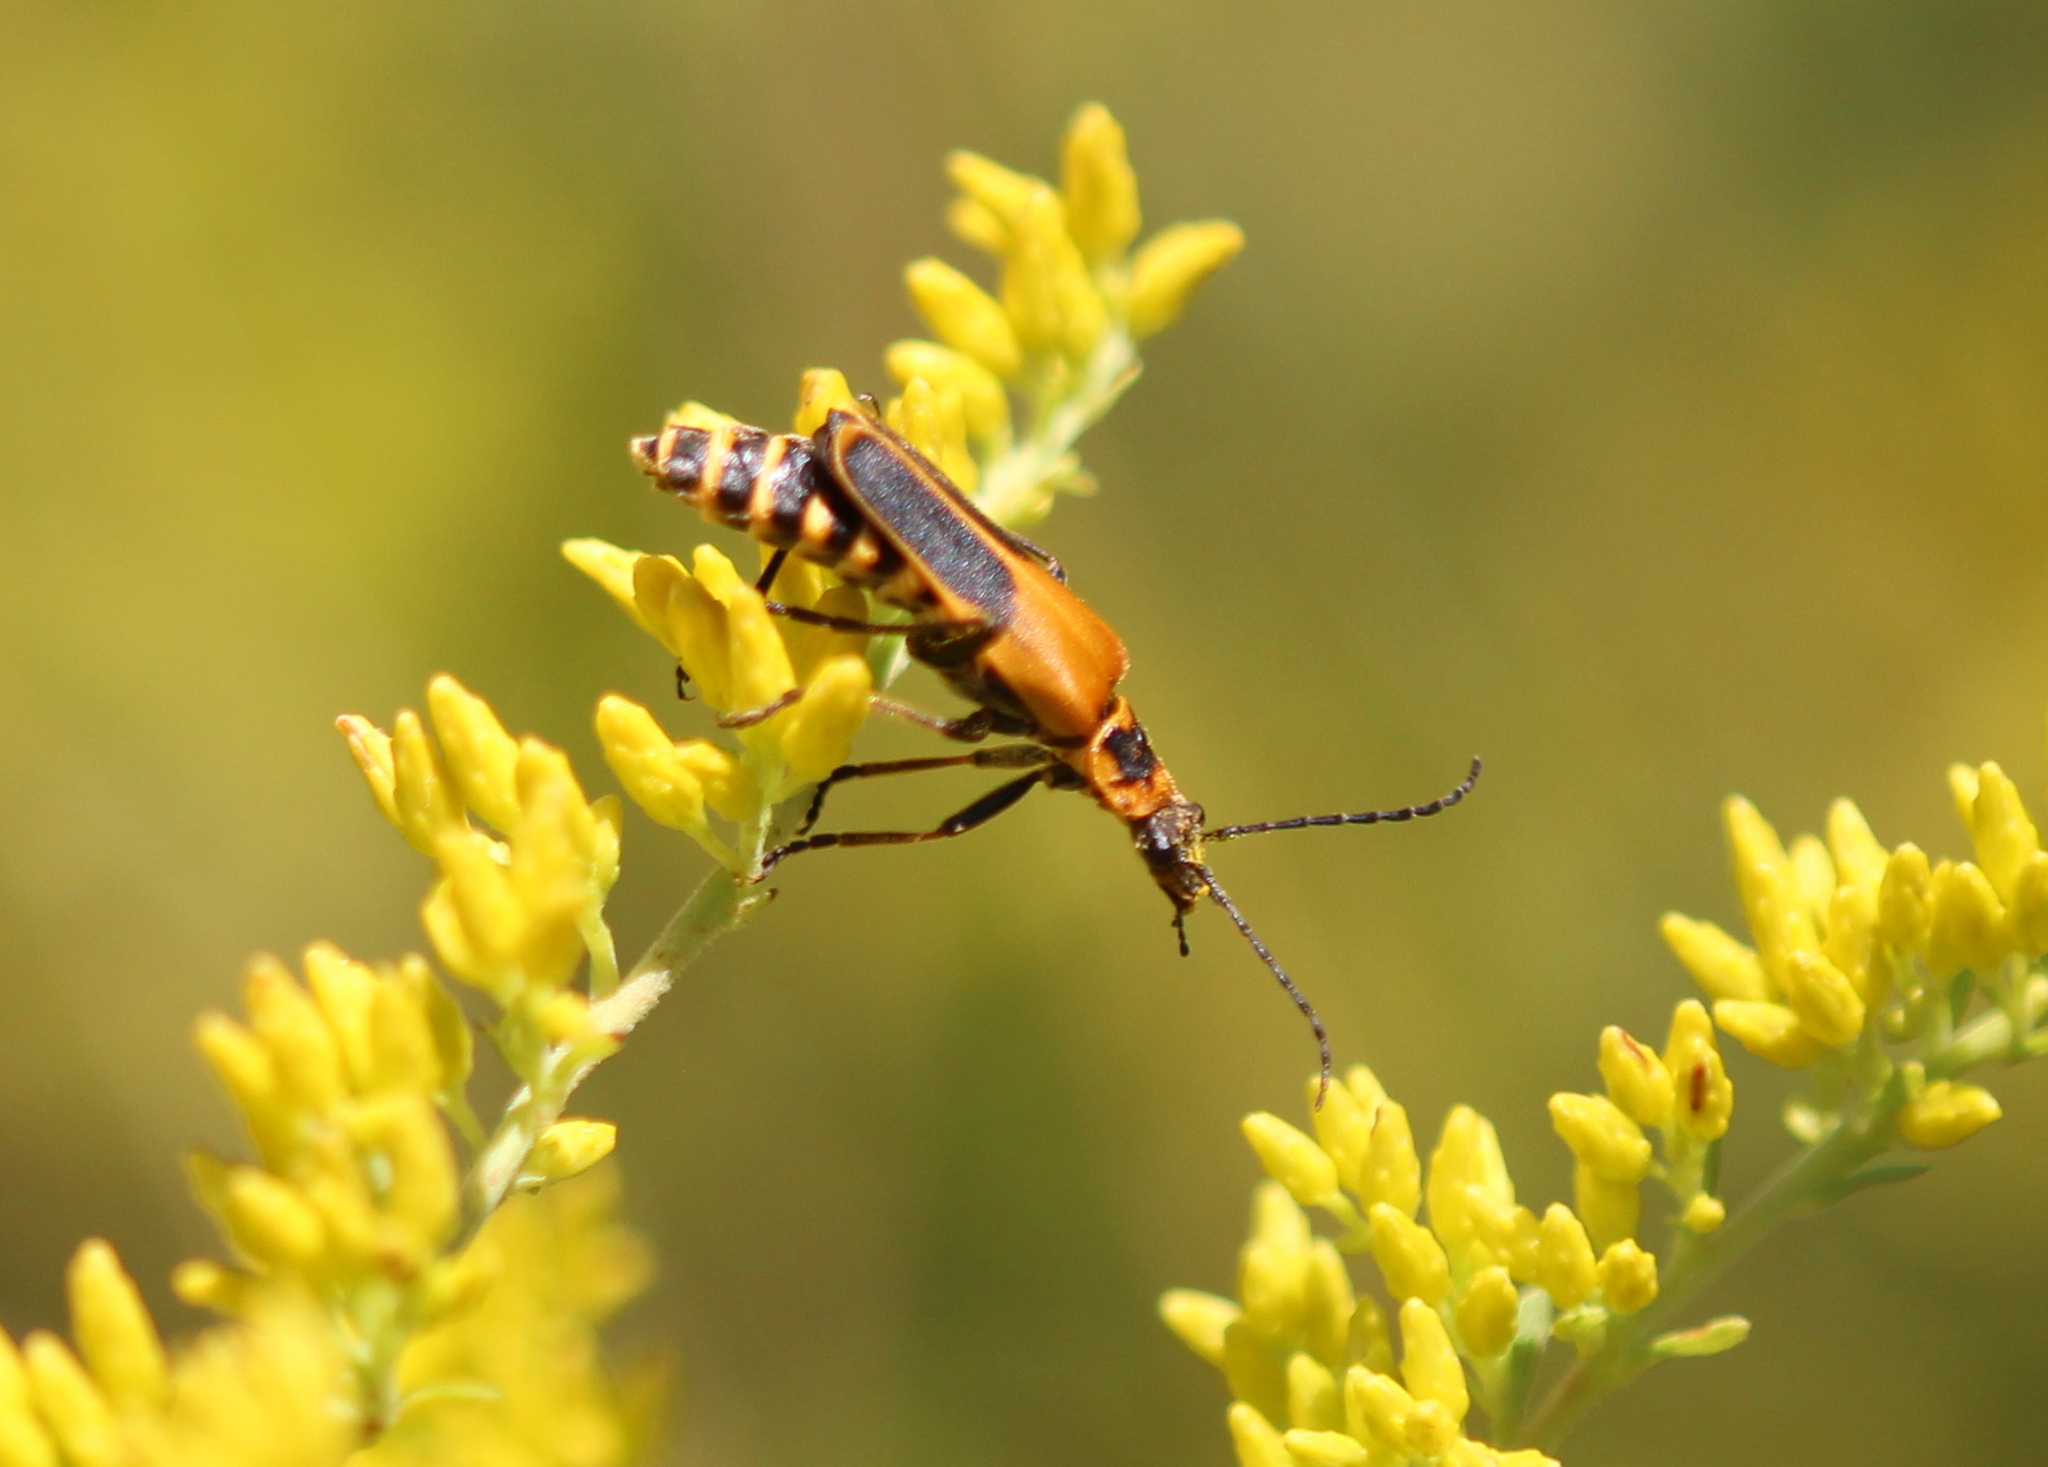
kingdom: Animalia
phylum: Arthropoda
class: Insecta
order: Coleoptera
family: Cantharidae
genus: Chauliognathus
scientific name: Chauliognathus pensylvanicus
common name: Goldenrod soldier beetle
